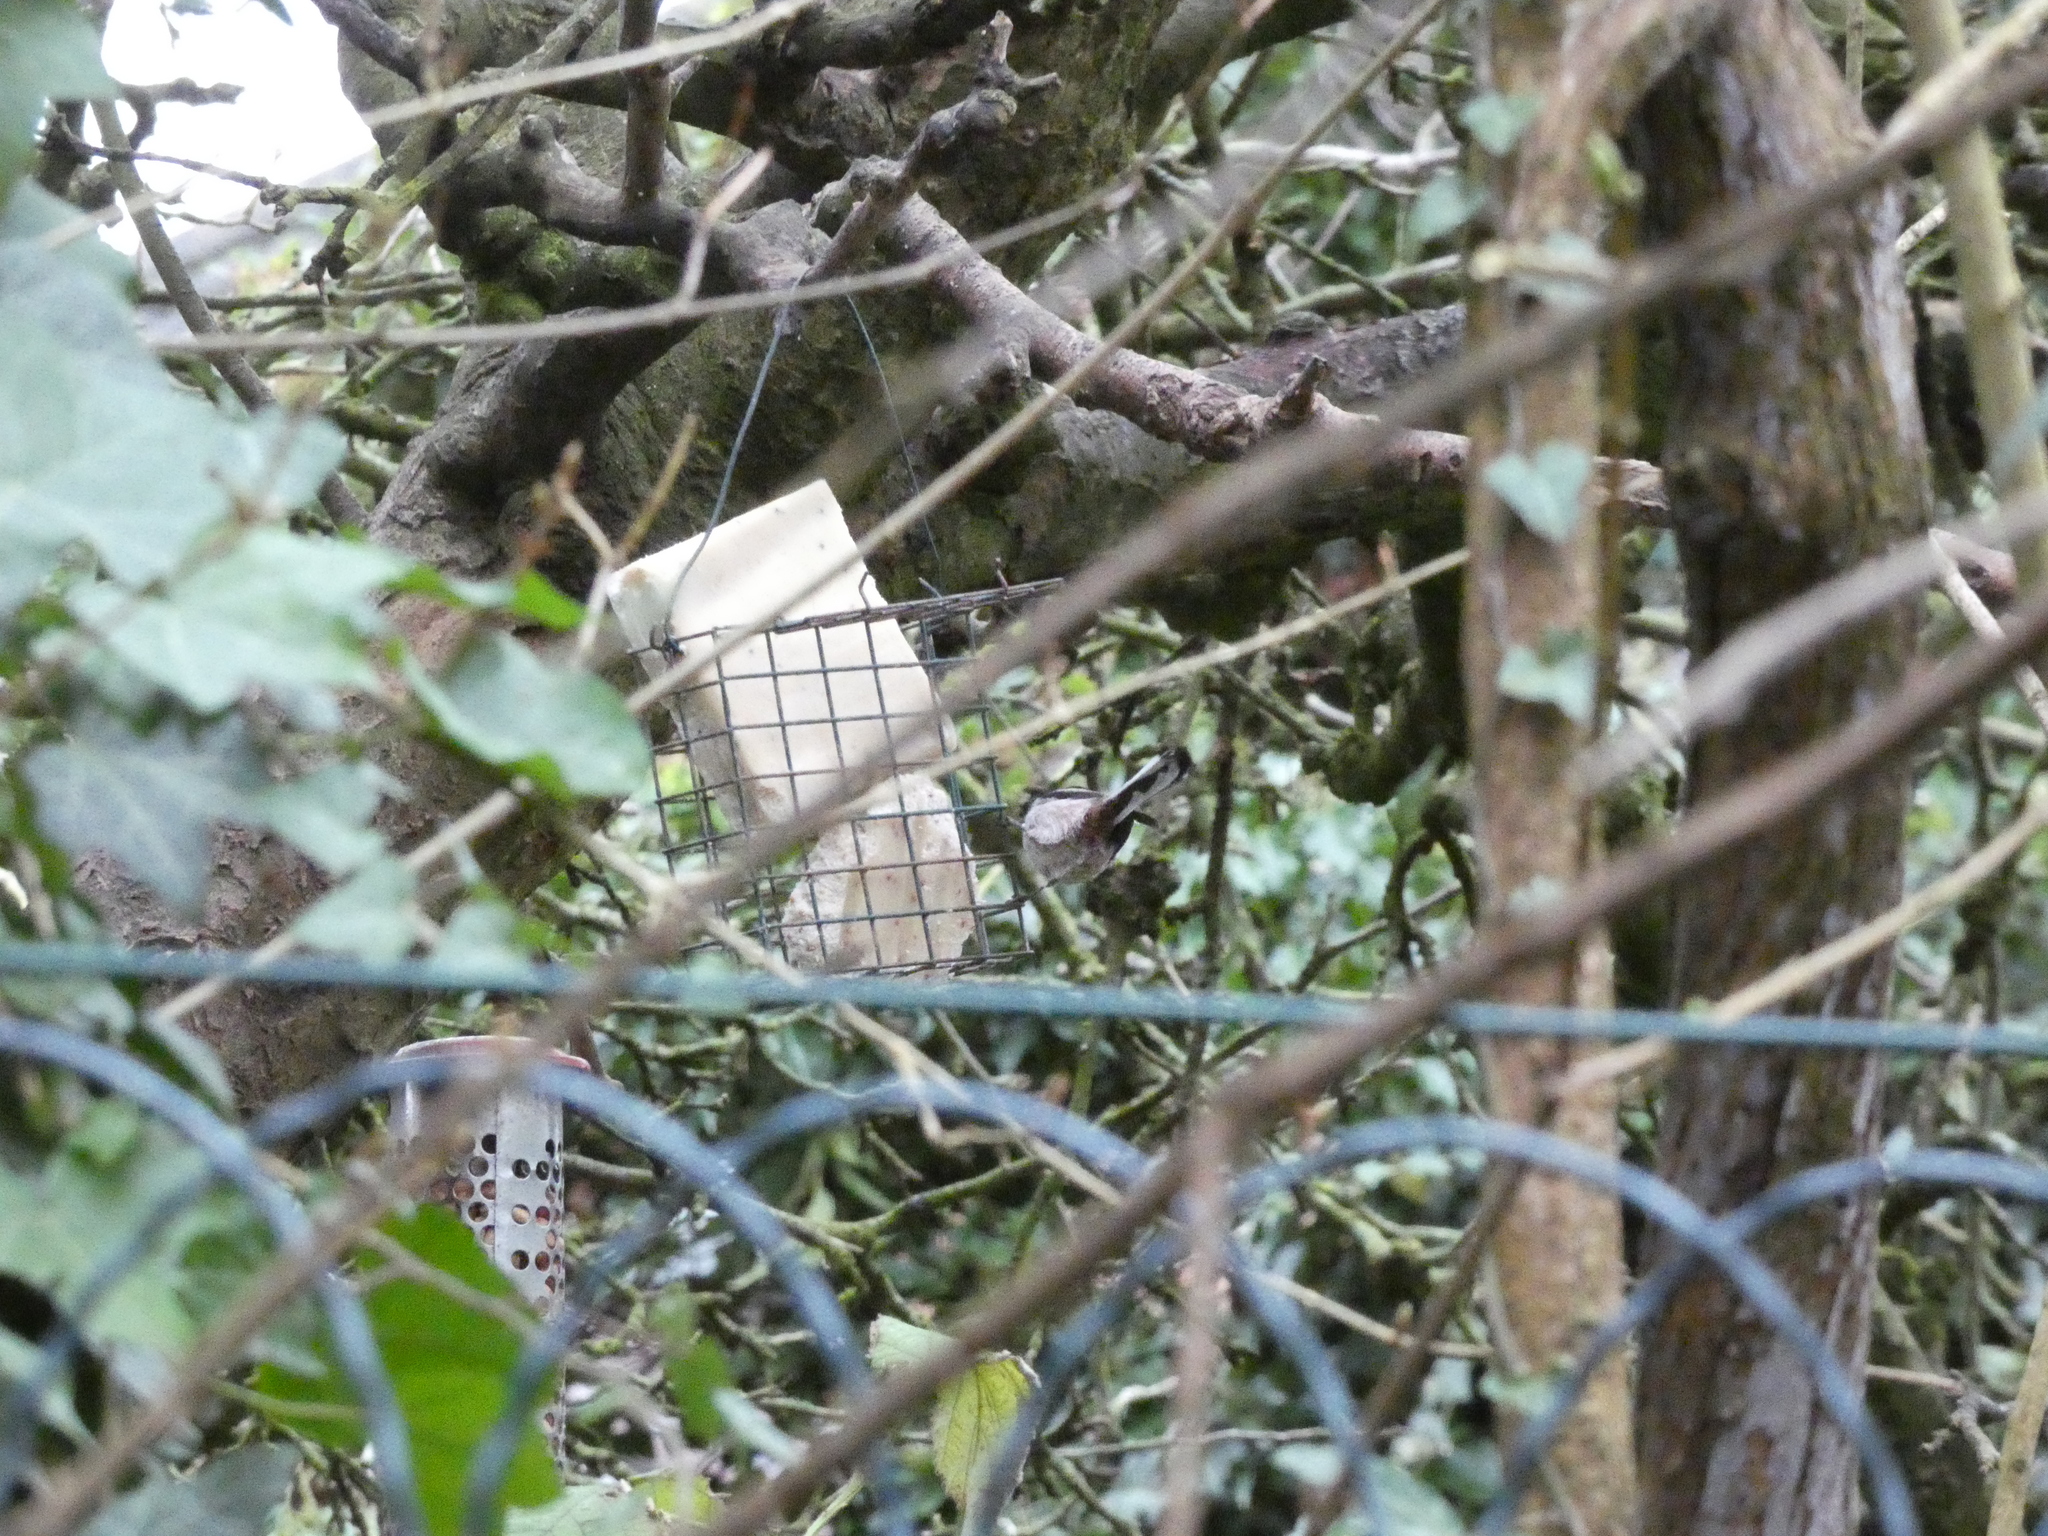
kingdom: Animalia
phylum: Chordata
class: Aves
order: Passeriformes
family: Aegithalidae
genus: Aegithalos
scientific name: Aegithalos caudatus
